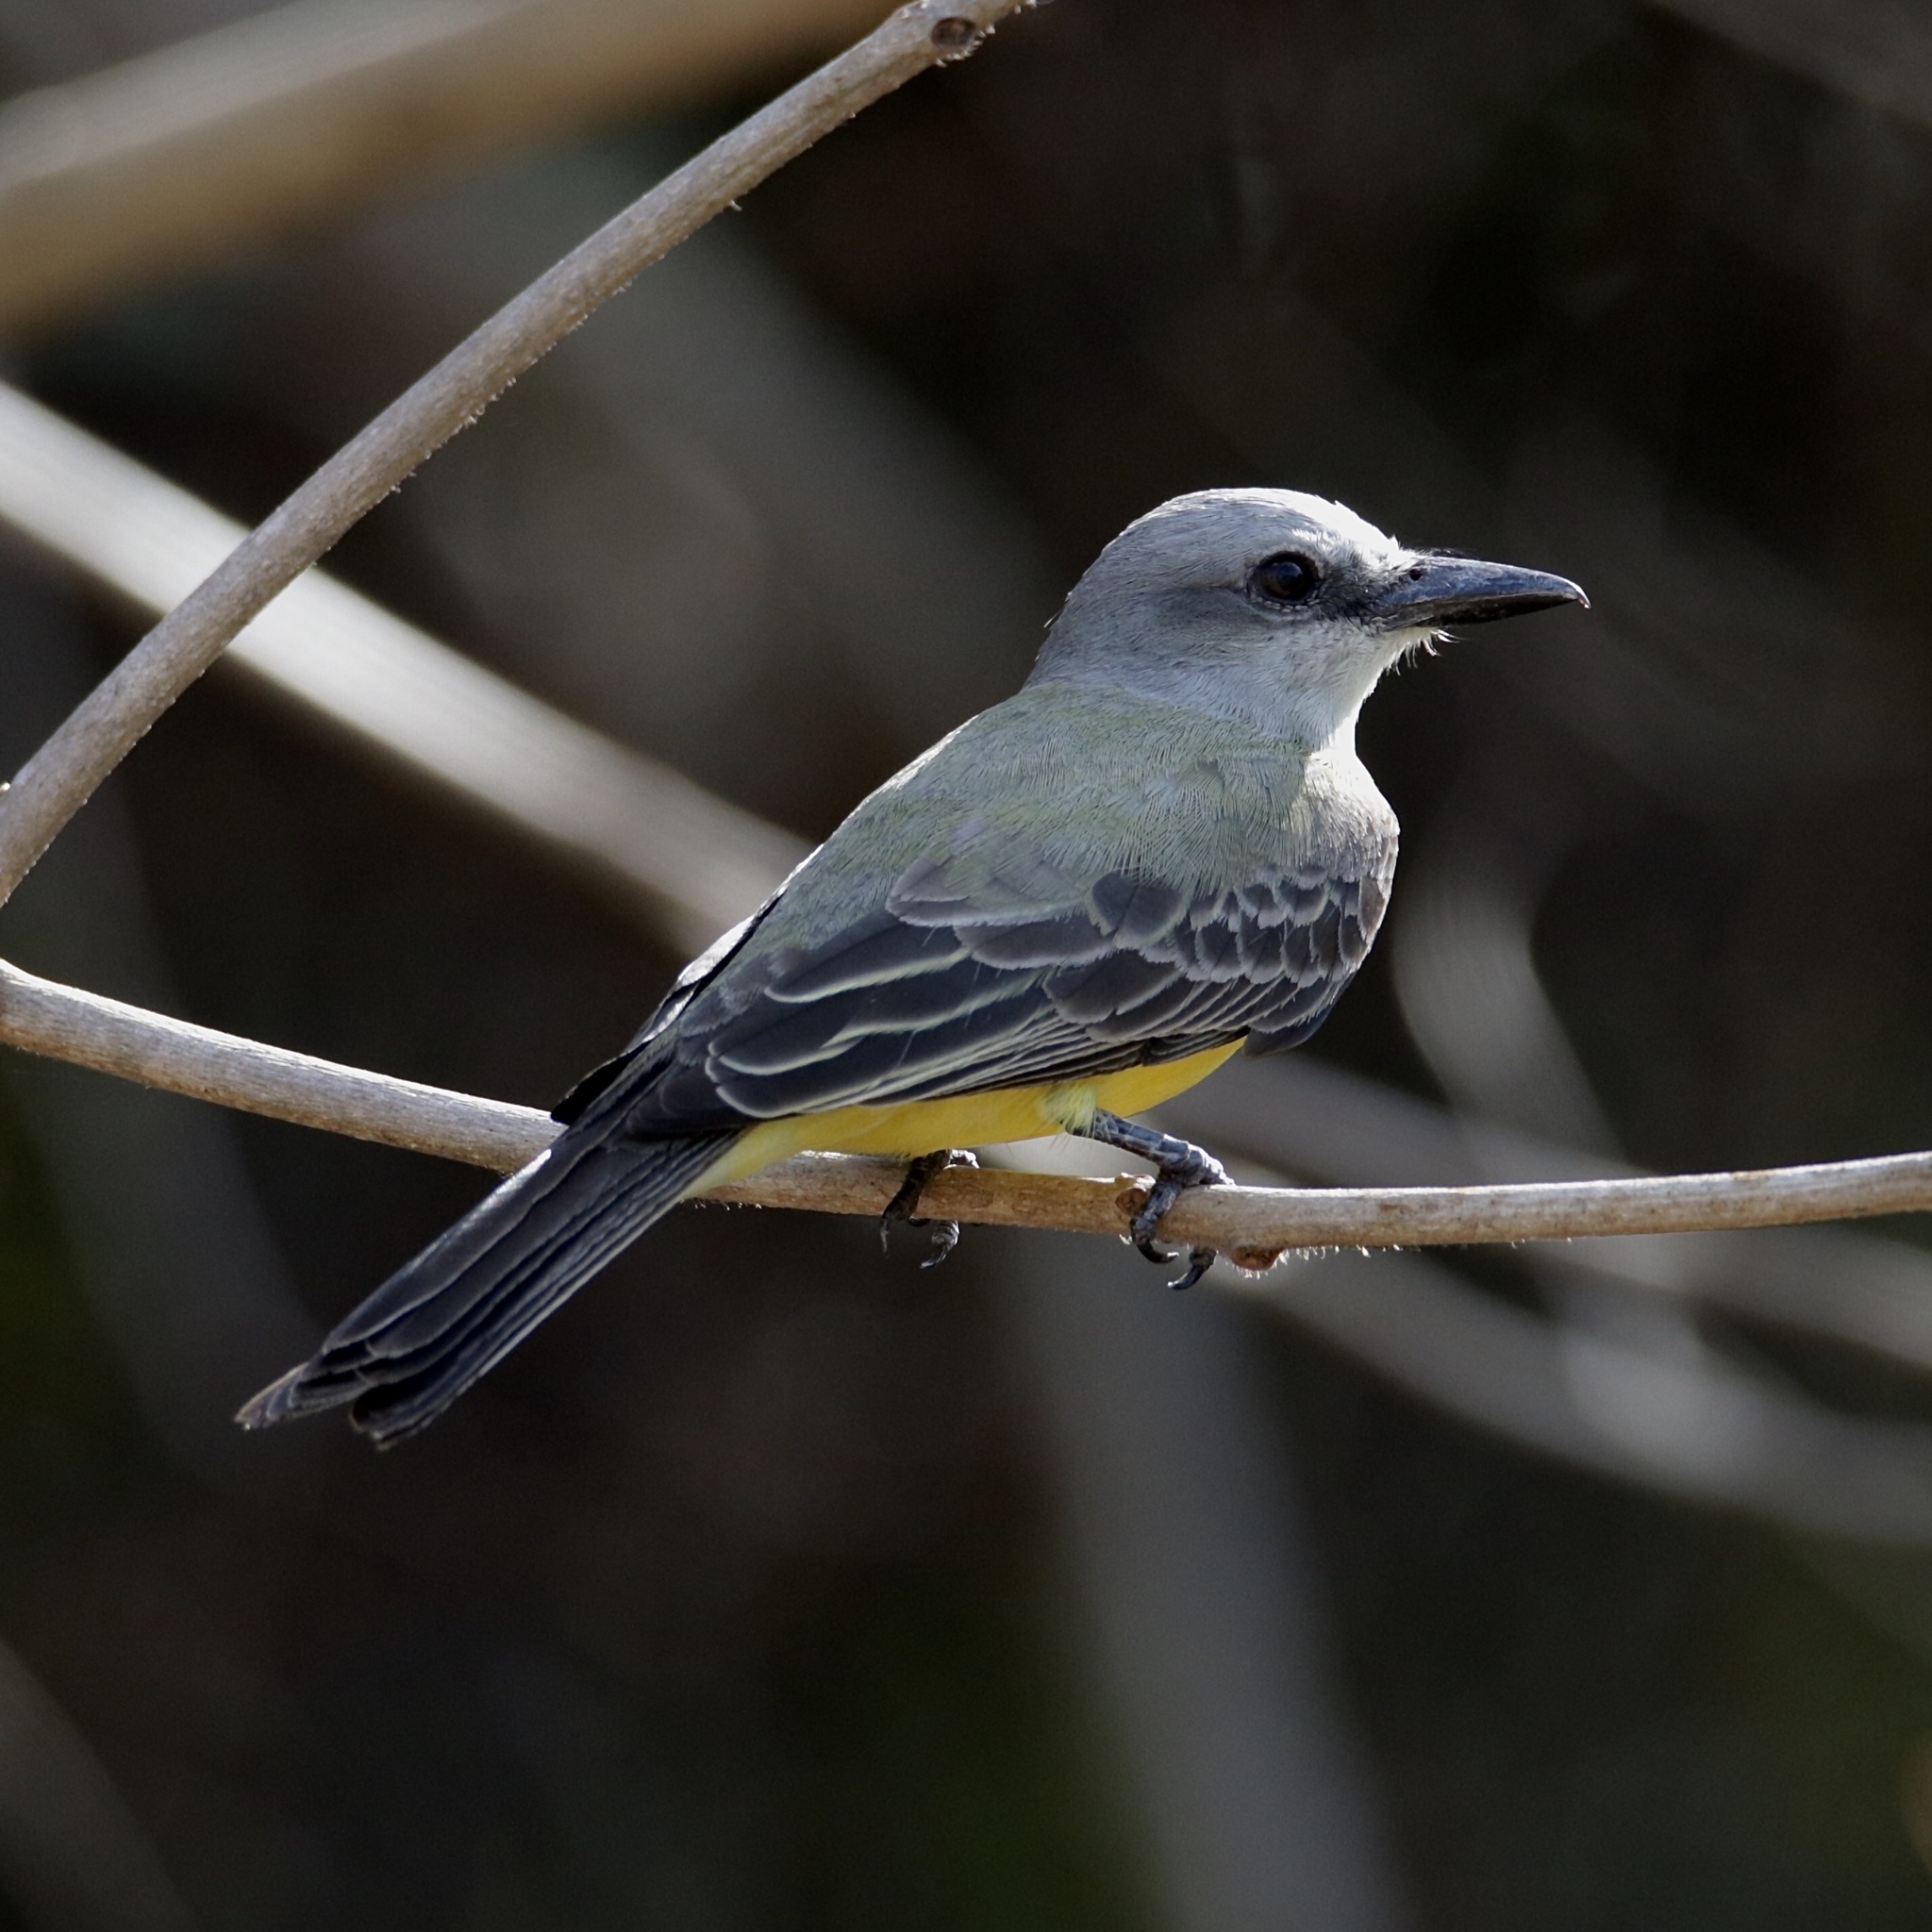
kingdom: Animalia
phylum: Chordata
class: Aves
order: Passeriformes
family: Tyrannidae
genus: Tyrannus
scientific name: Tyrannus melancholicus
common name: Tropical kingbird
